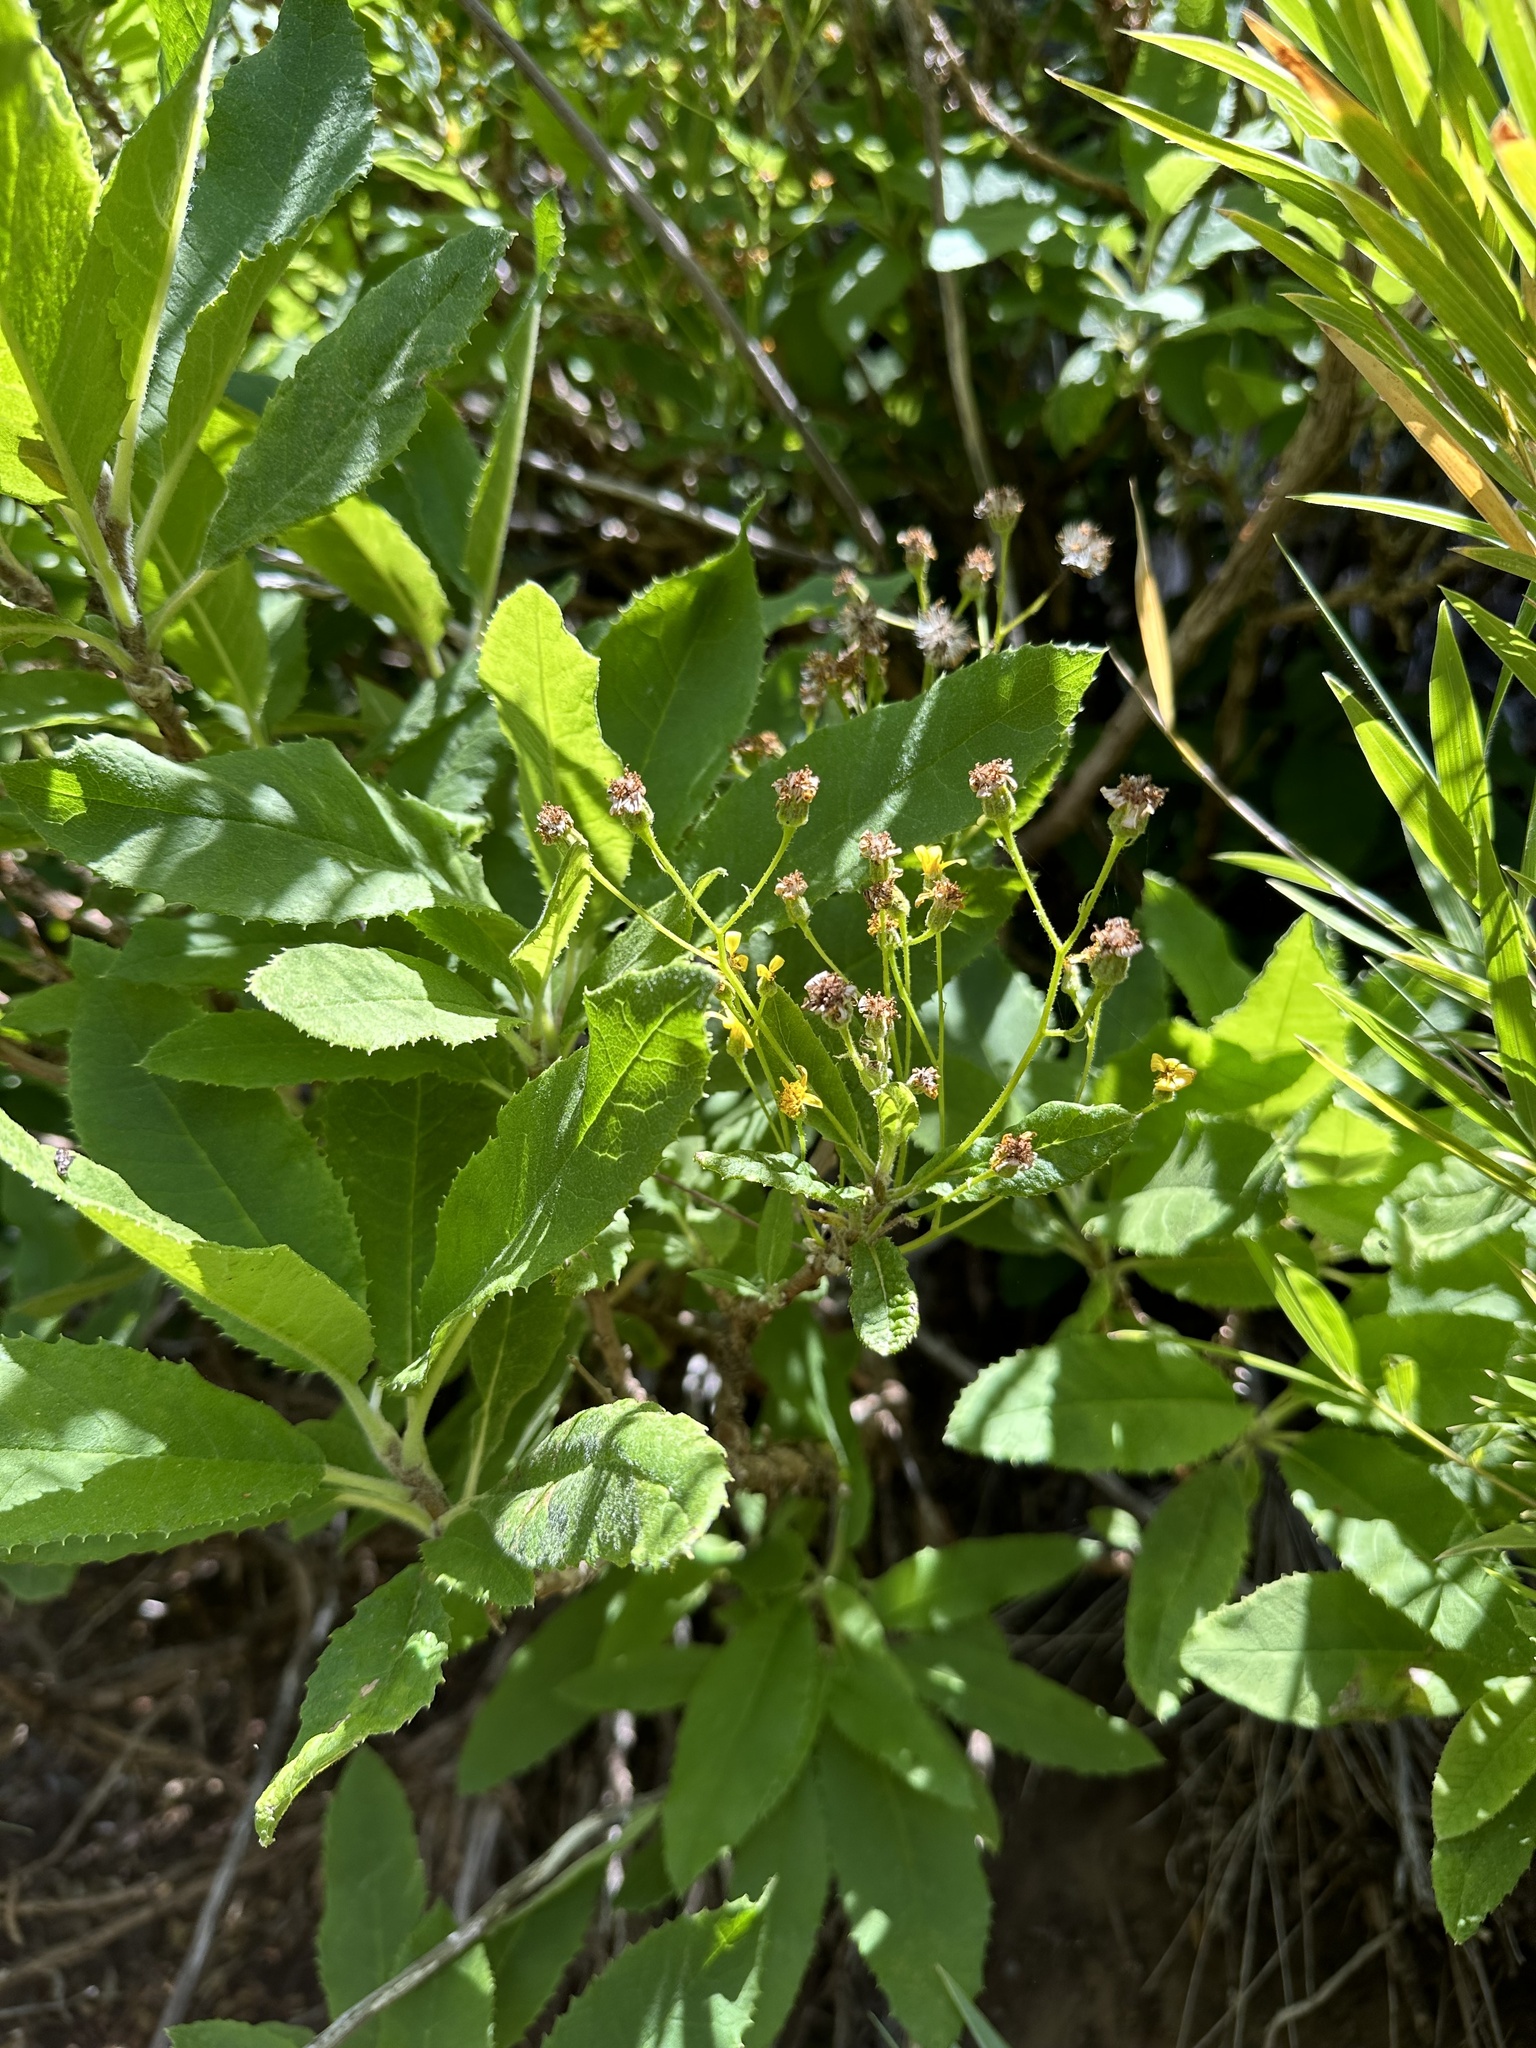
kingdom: Plantae
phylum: Tracheophyta
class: Magnoliopsida
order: Asterales
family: Asteraceae
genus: Acrisione
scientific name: Acrisione denticulata
